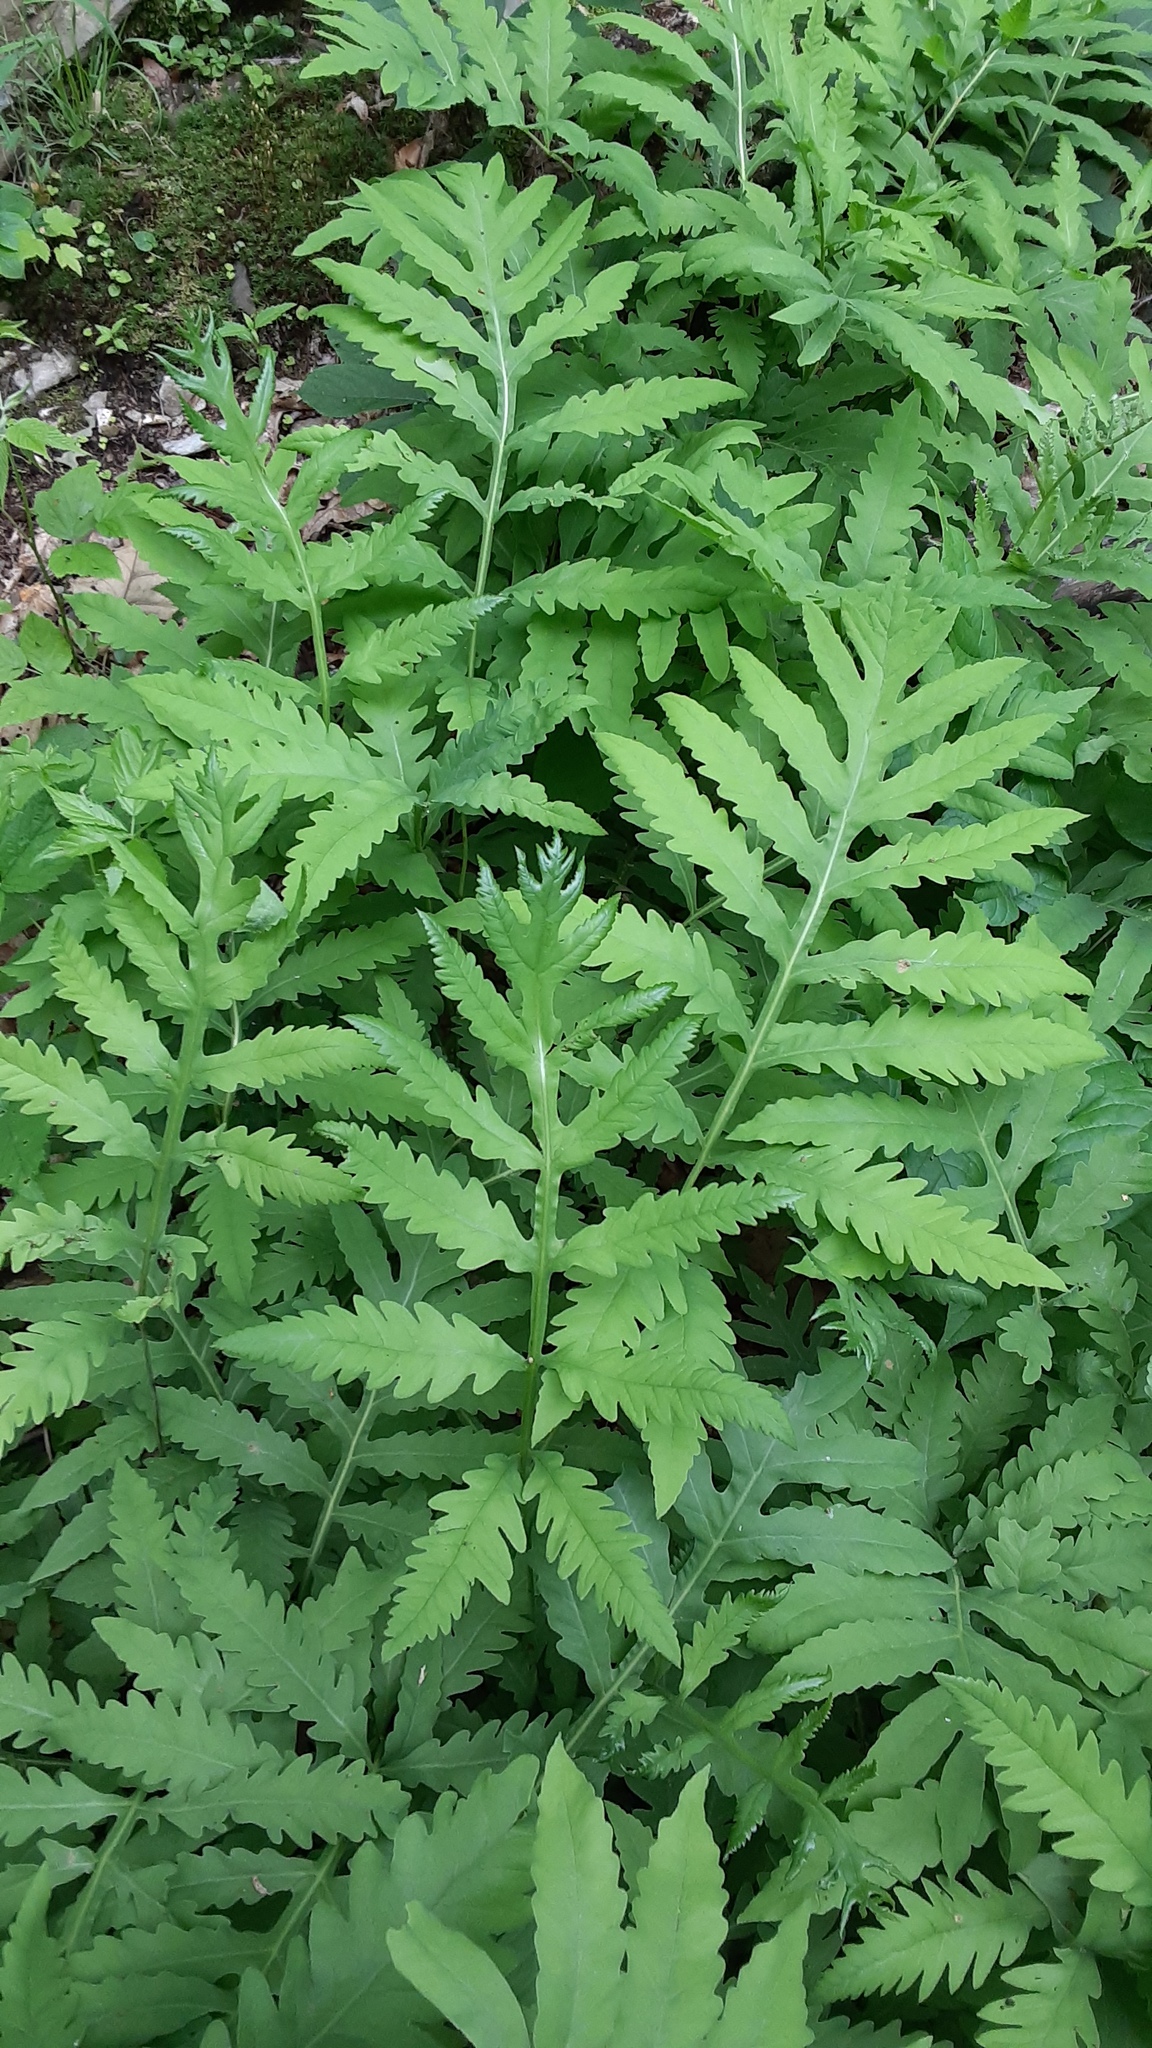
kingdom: Plantae
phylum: Tracheophyta
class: Polypodiopsida
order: Polypodiales
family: Onocleaceae
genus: Onoclea
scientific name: Onoclea sensibilis
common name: Sensitive fern
